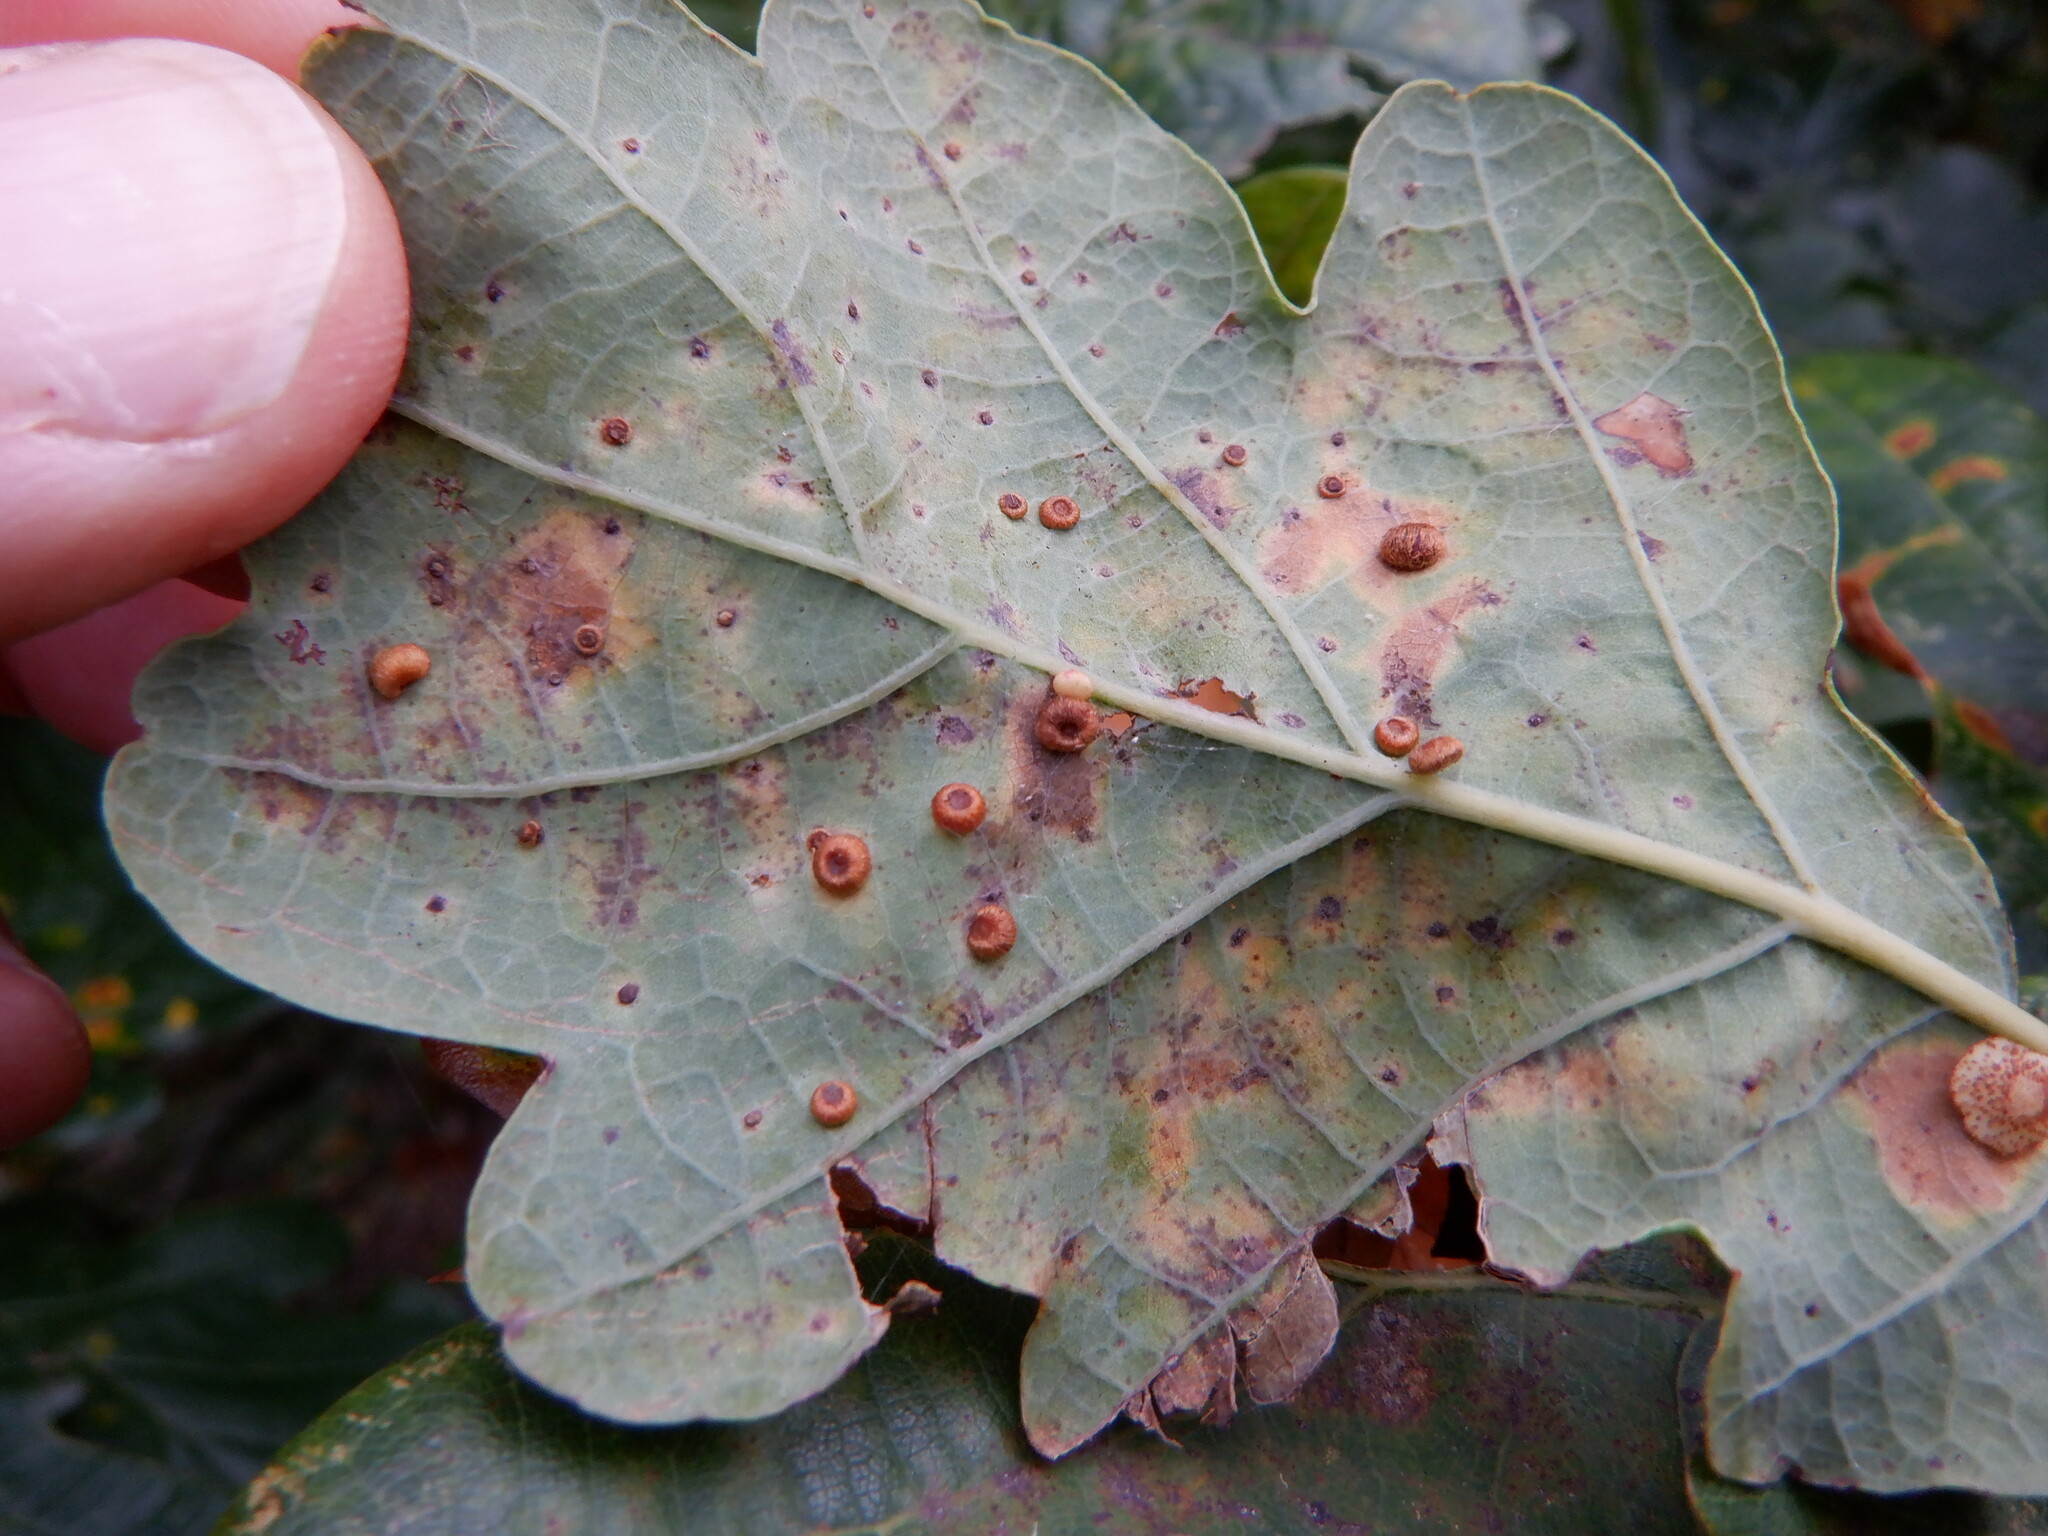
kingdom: Animalia
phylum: Arthropoda
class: Insecta
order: Hymenoptera
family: Cynipidae
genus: Neuroterus
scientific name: Neuroterus numismalis
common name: Silk-button spangle gall
